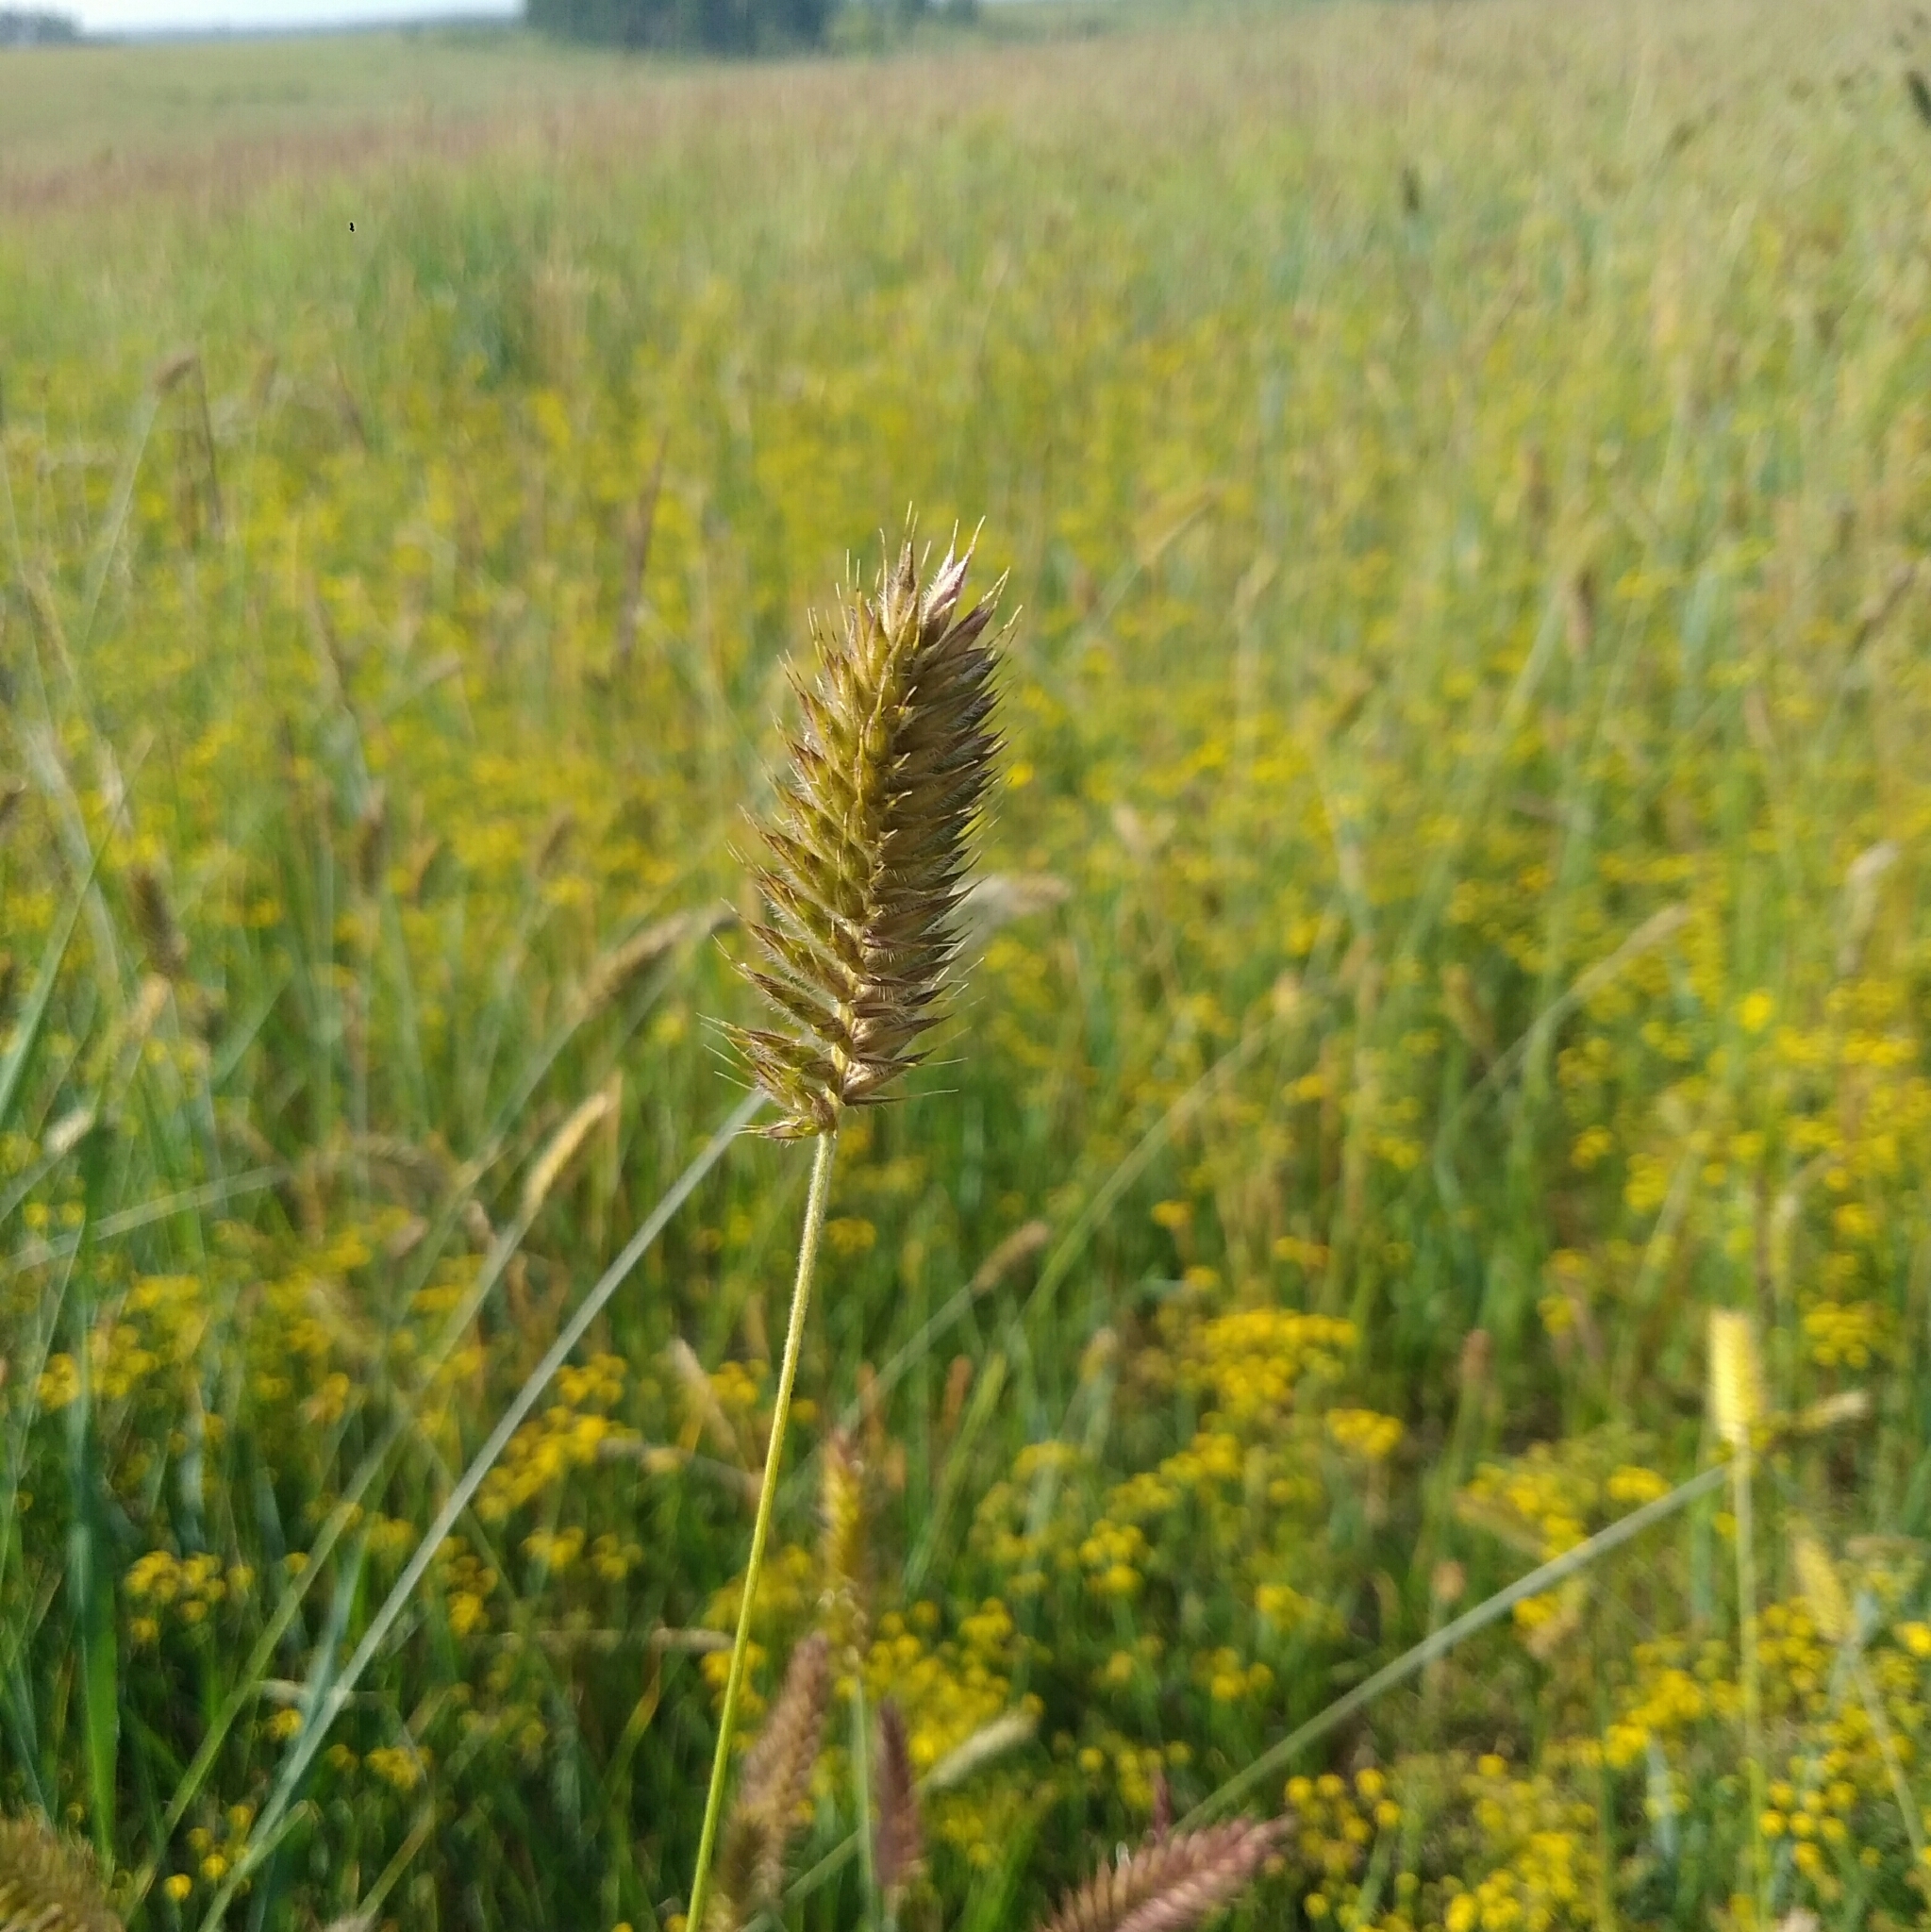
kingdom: Plantae
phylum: Tracheophyta
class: Liliopsida
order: Poales
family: Poaceae
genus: Agropyron
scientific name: Agropyron cristatum
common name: Crested wheatgrass
